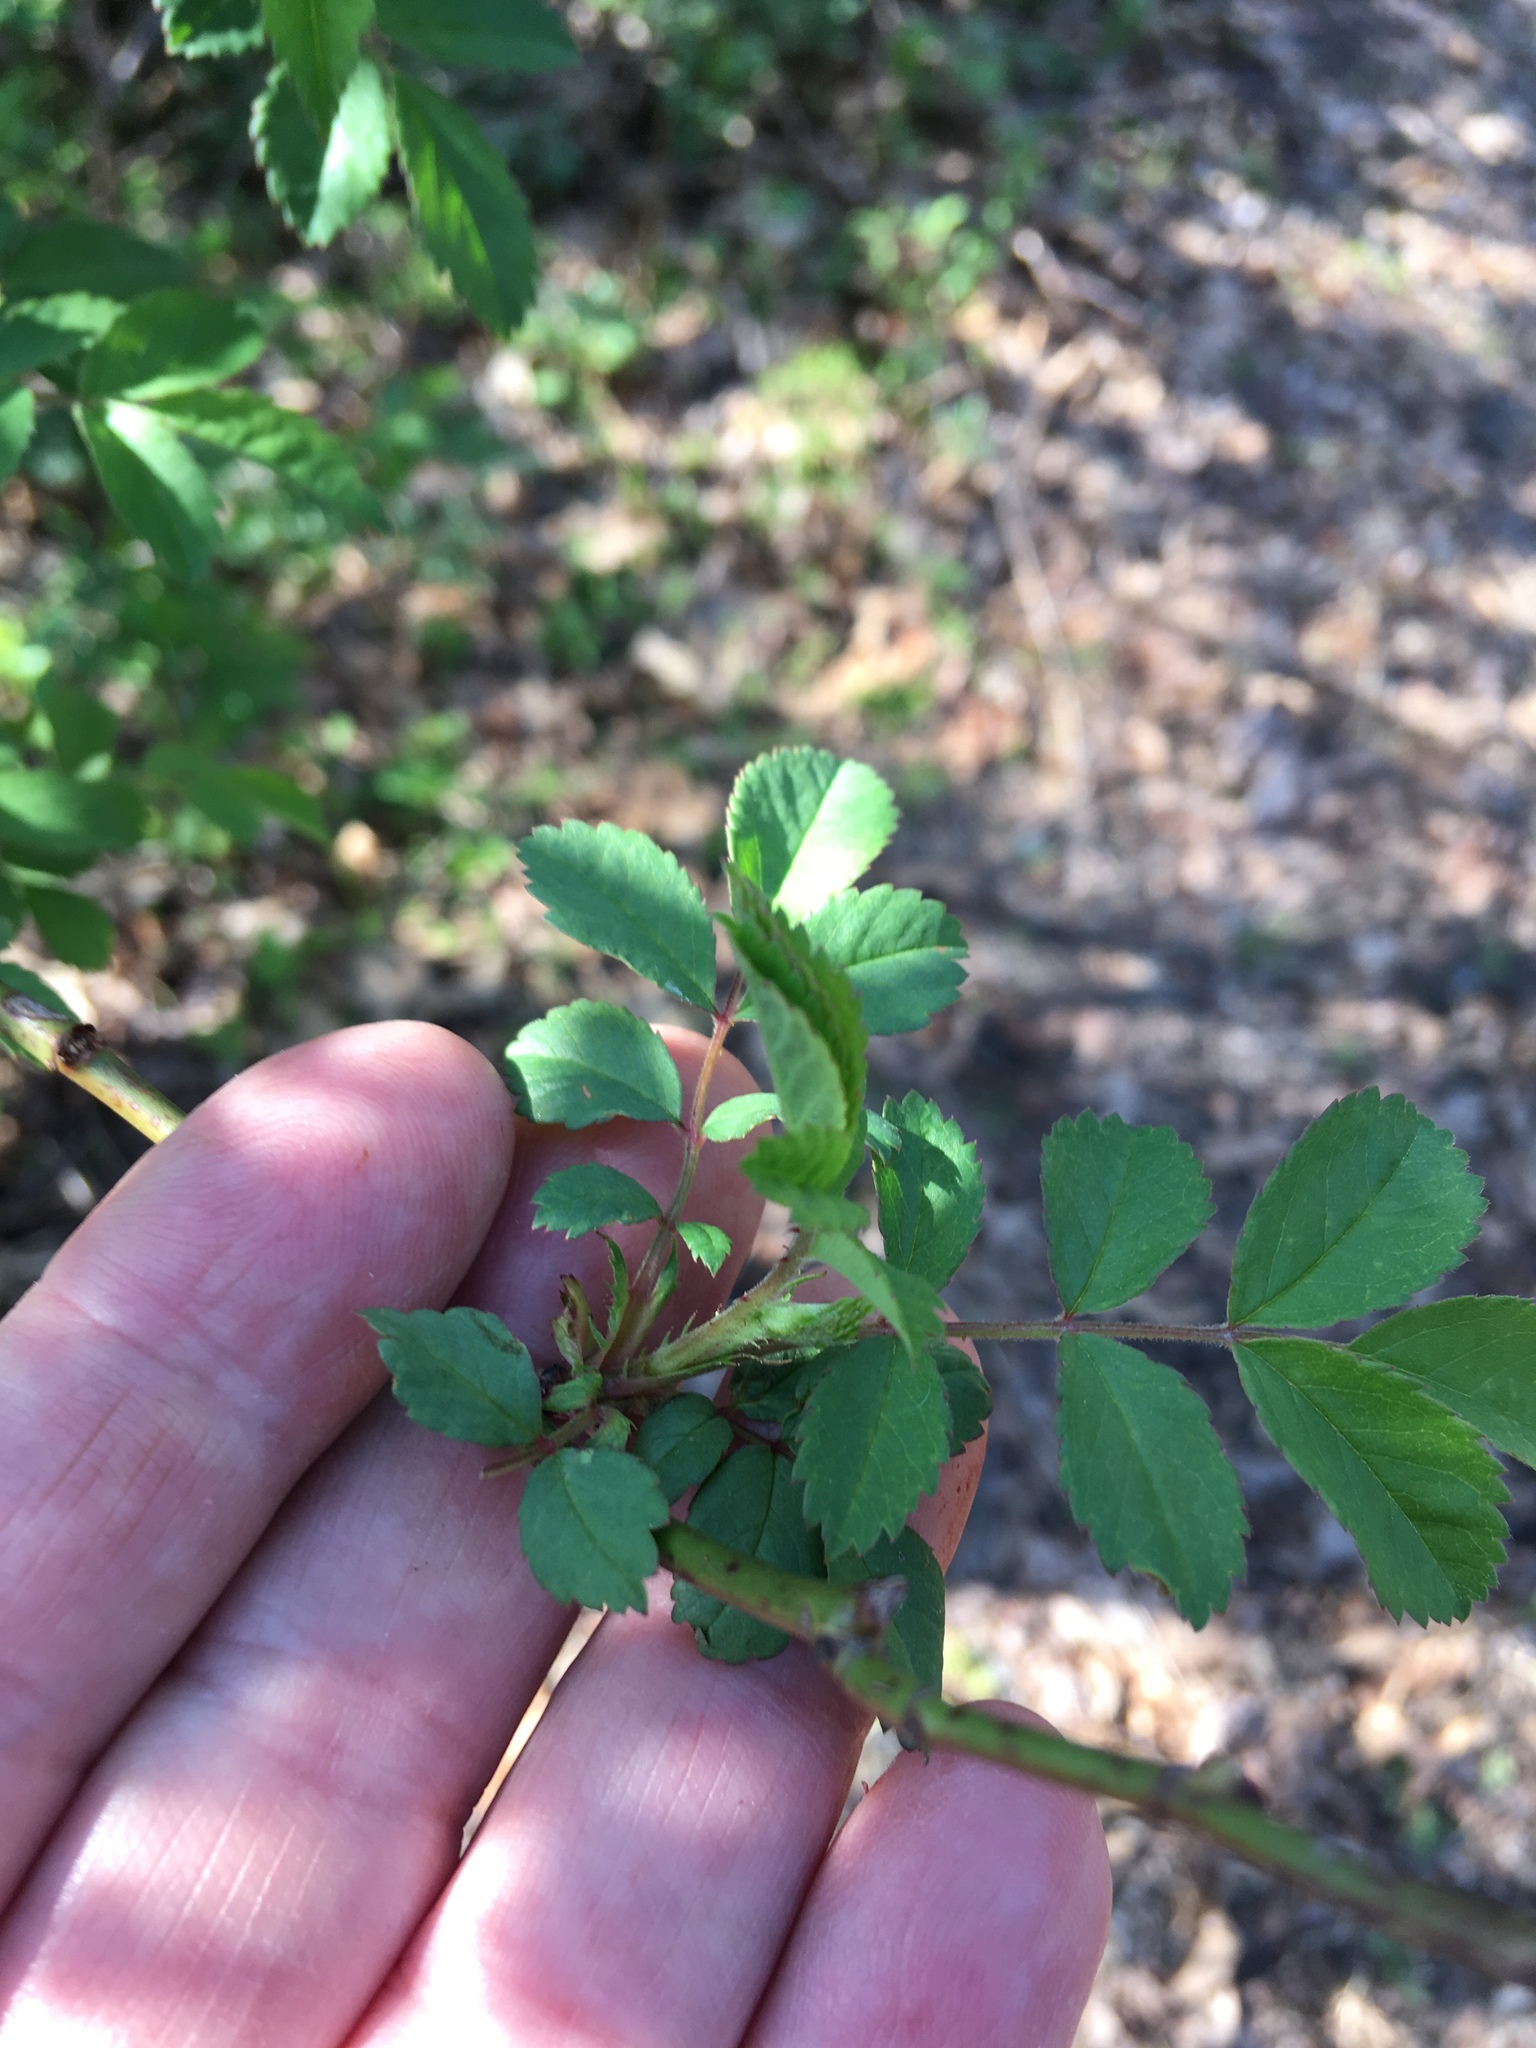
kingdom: Plantae
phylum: Tracheophyta
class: Magnoliopsida
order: Rosales
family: Rosaceae
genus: Rosa
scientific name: Rosa multiflora
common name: Multiflora rose
